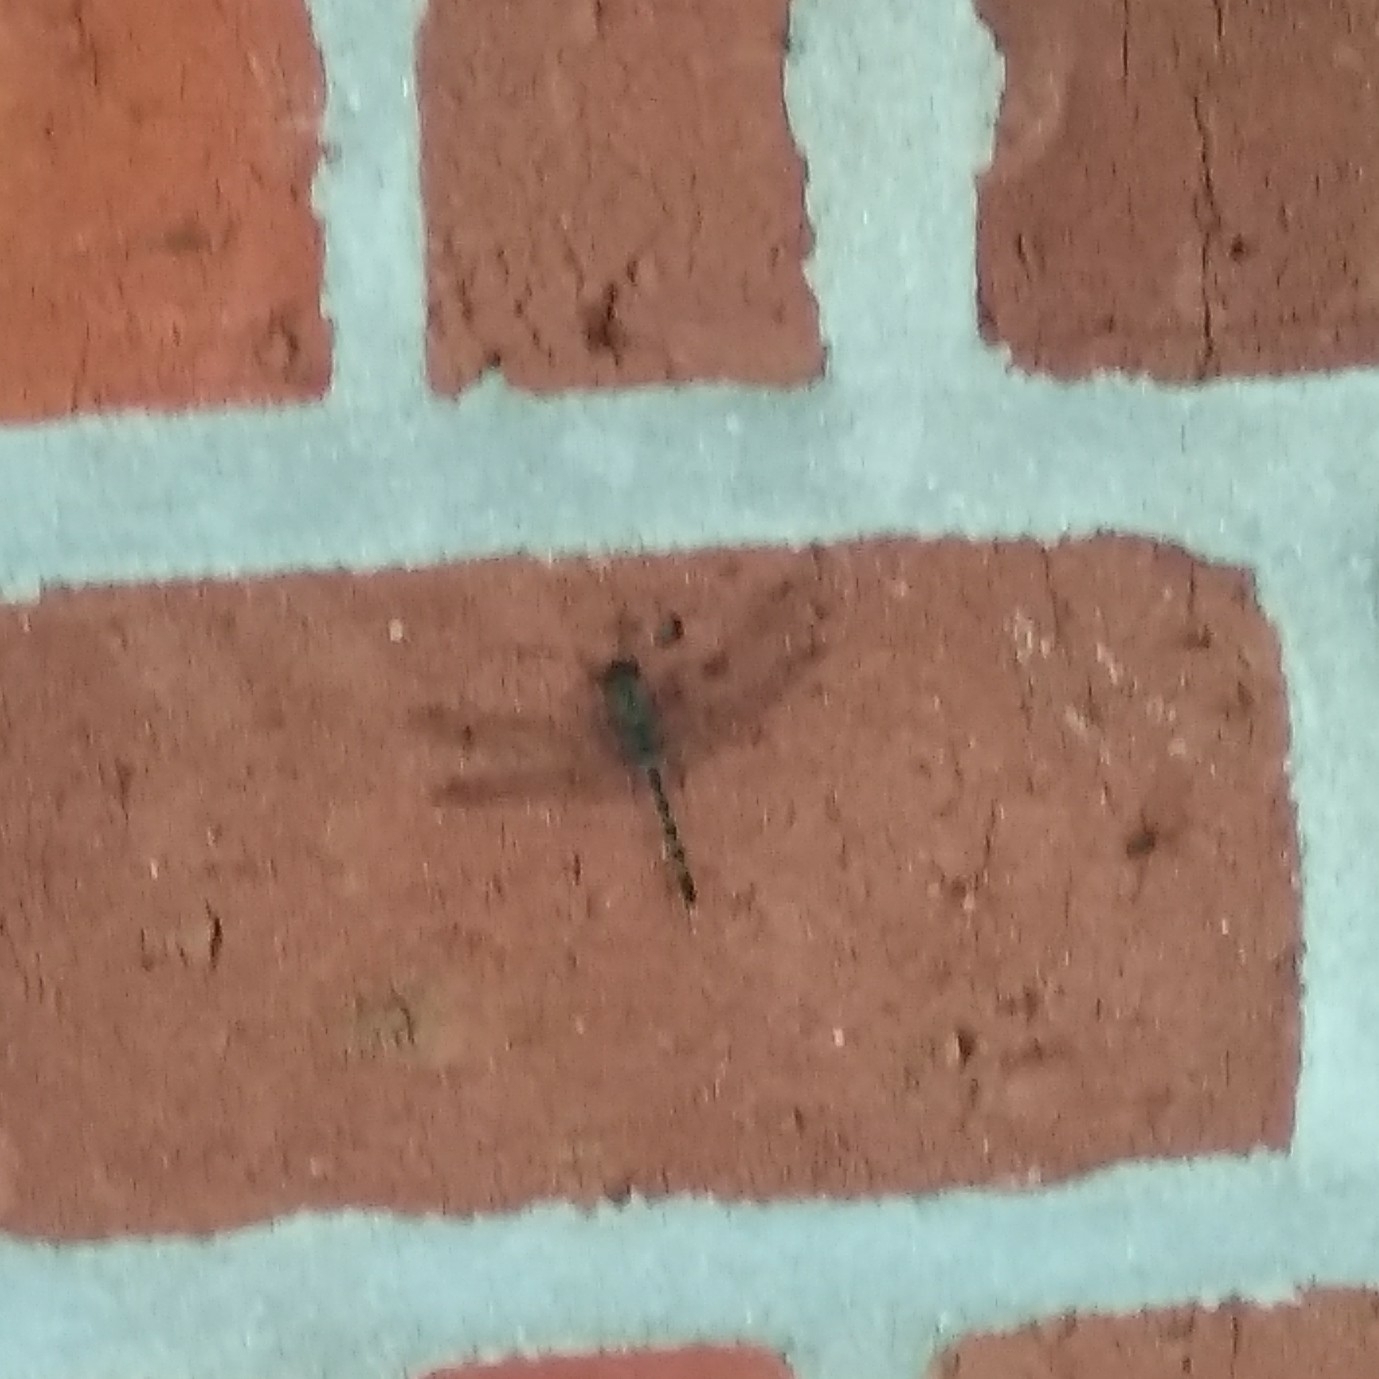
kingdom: Animalia
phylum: Arthropoda
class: Insecta
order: Odonata
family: Libellulidae
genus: Bradinopyga
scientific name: Bradinopyga geminata
